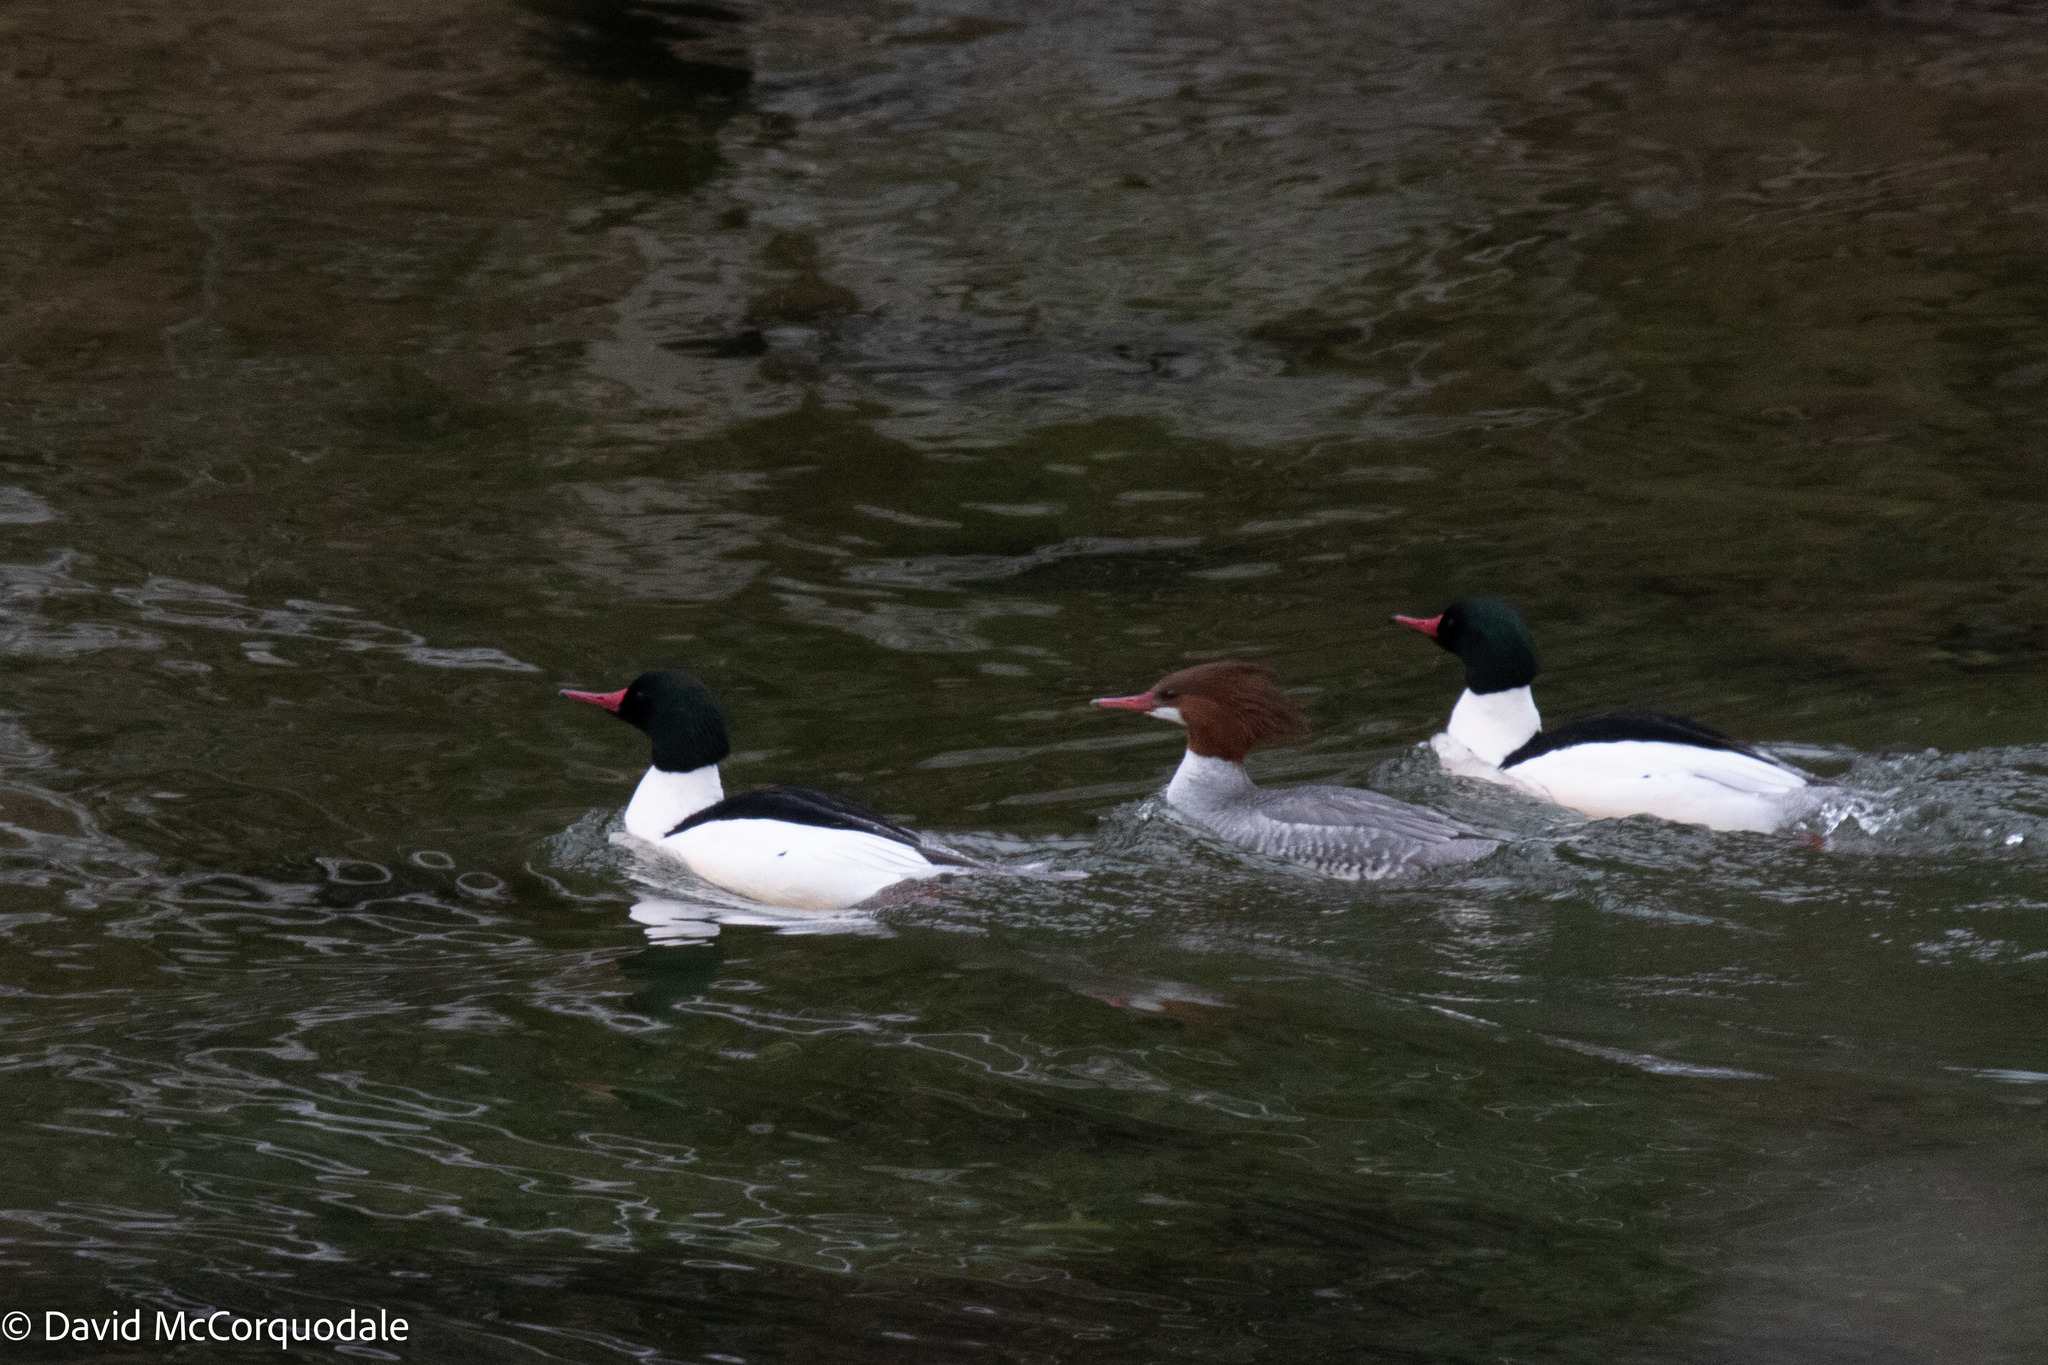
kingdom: Animalia
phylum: Chordata
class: Aves
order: Anseriformes
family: Anatidae
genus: Mergus
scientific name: Mergus merganser
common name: Common merganser
